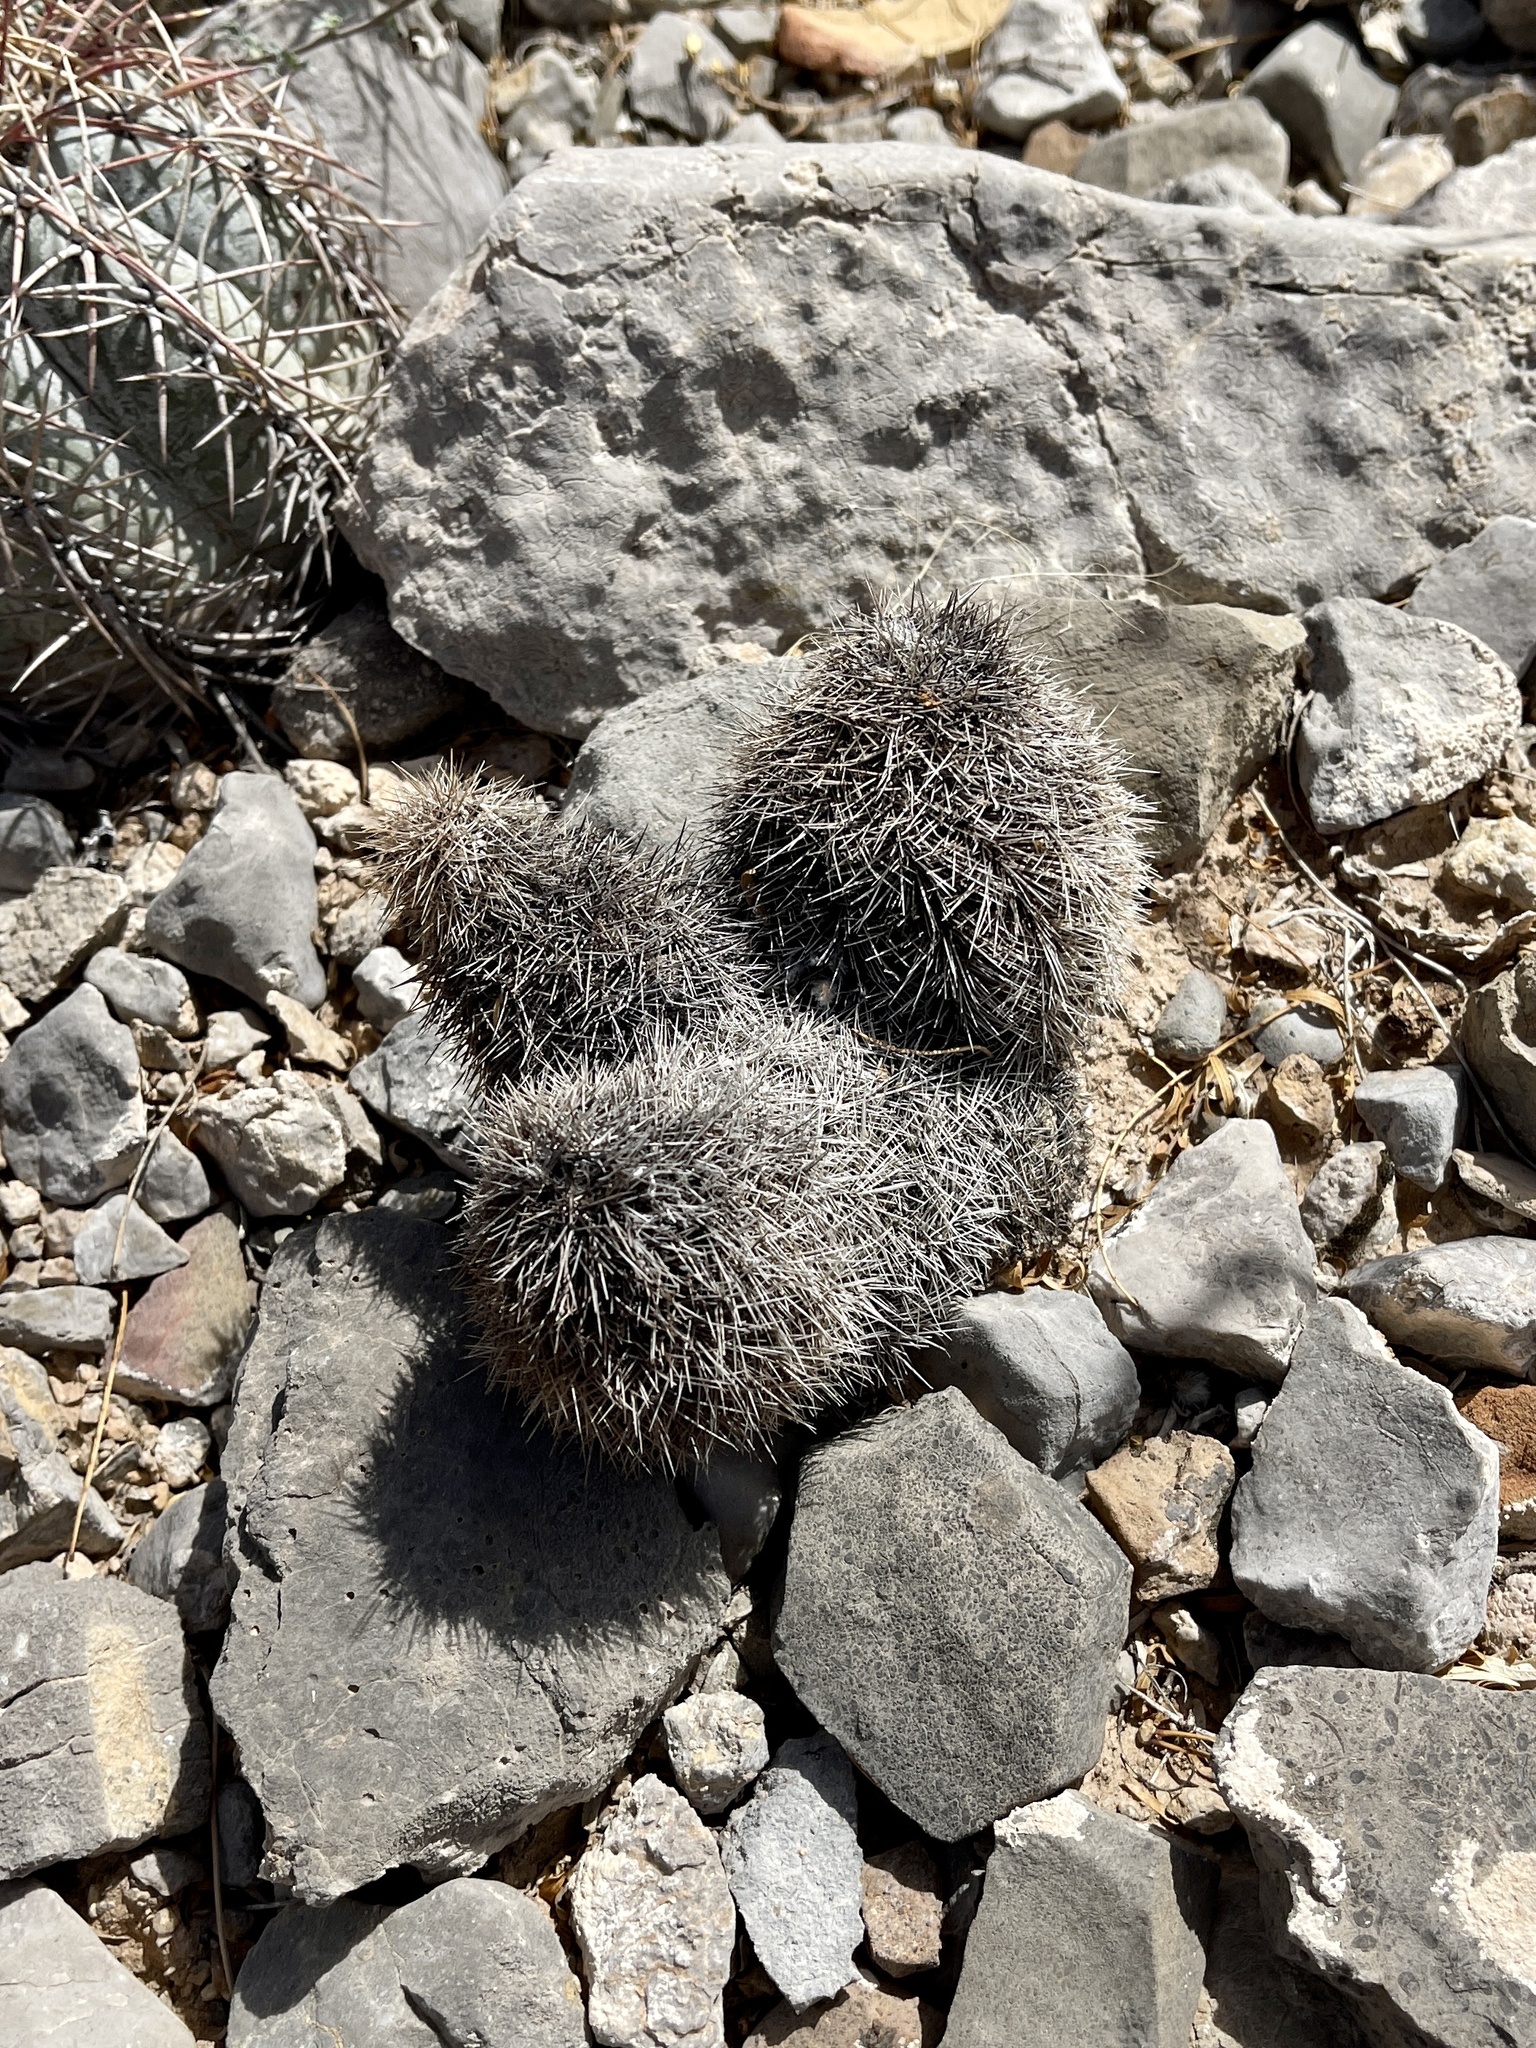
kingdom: Plantae
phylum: Tracheophyta
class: Magnoliopsida
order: Caryophyllales
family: Cactaceae
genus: Echinocereus
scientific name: Echinocereus dasyacanthus
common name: Spiny hedgehog cactus
